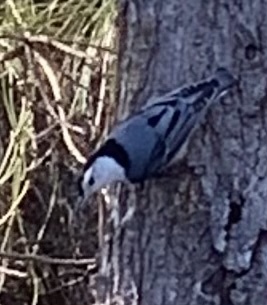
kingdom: Animalia
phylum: Chordata
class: Aves
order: Passeriformes
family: Sittidae
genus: Sitta
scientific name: Sitta carolinensis
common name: White-breasted nuthatch
